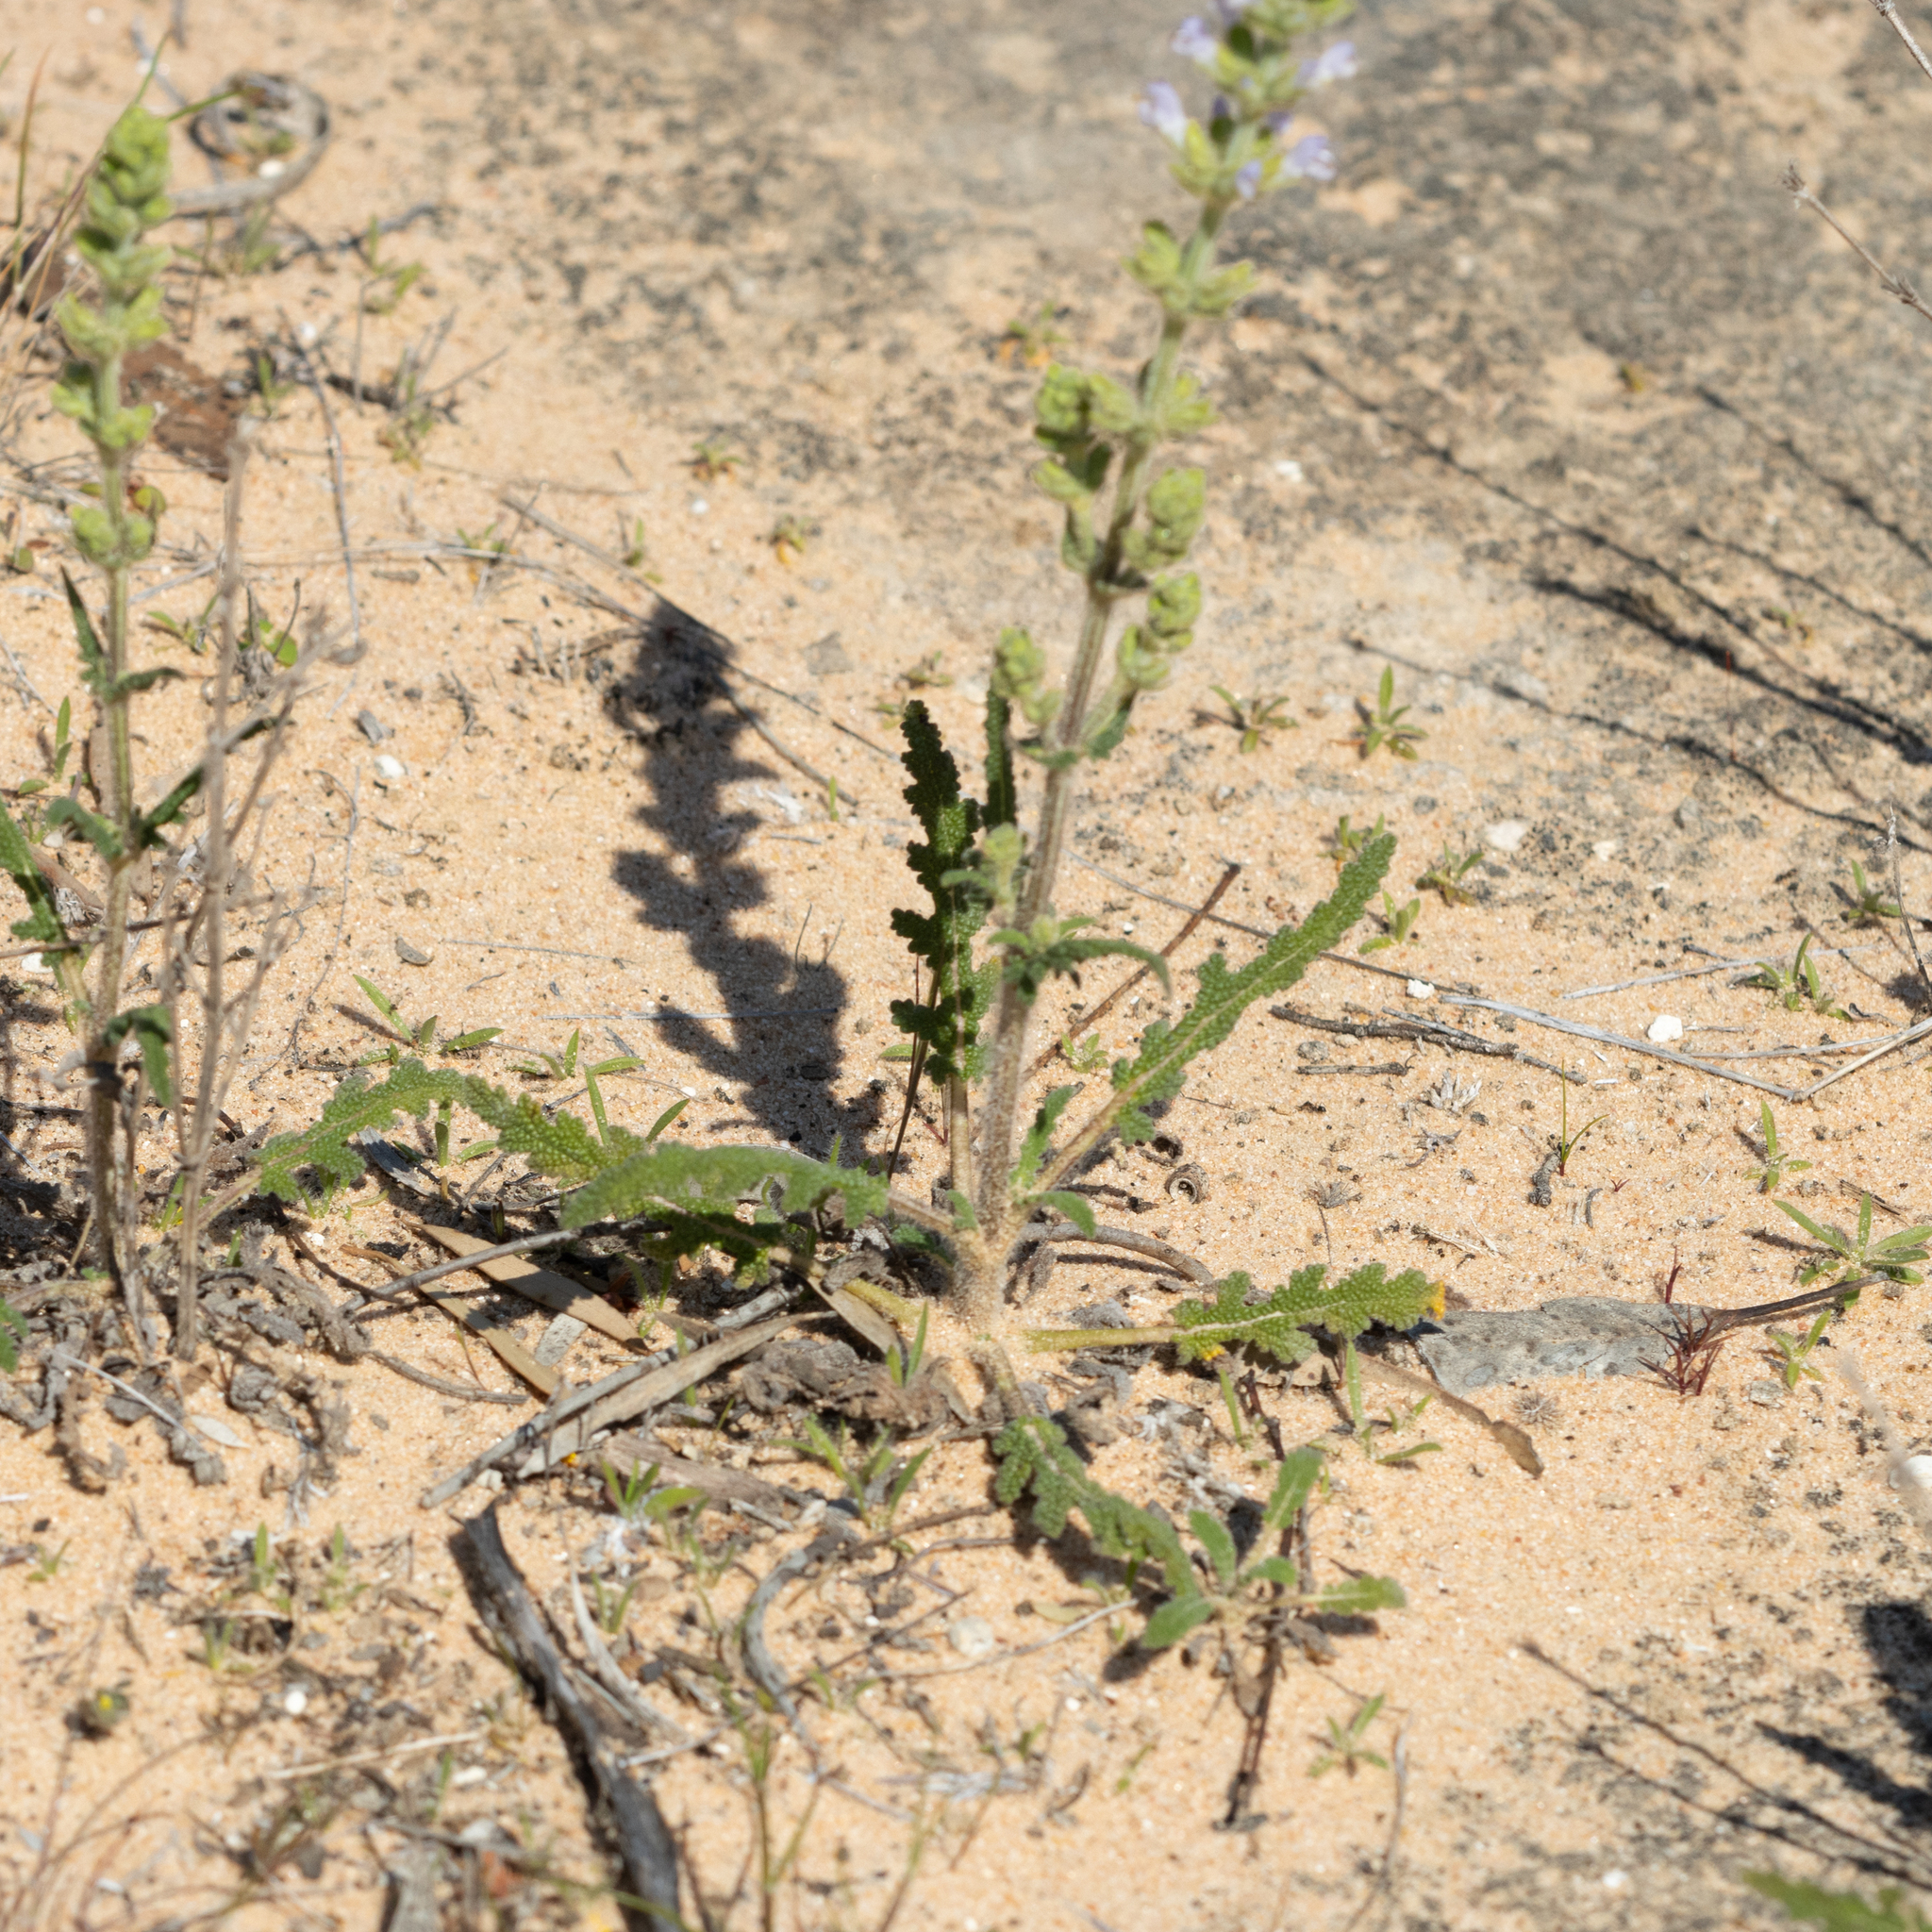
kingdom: Plantae
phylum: Tracheophyta
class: Magnoliopsida
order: Lamiales
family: Lamiaceae
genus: Salvia
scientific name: Salvia verbenaca
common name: Wild clary
